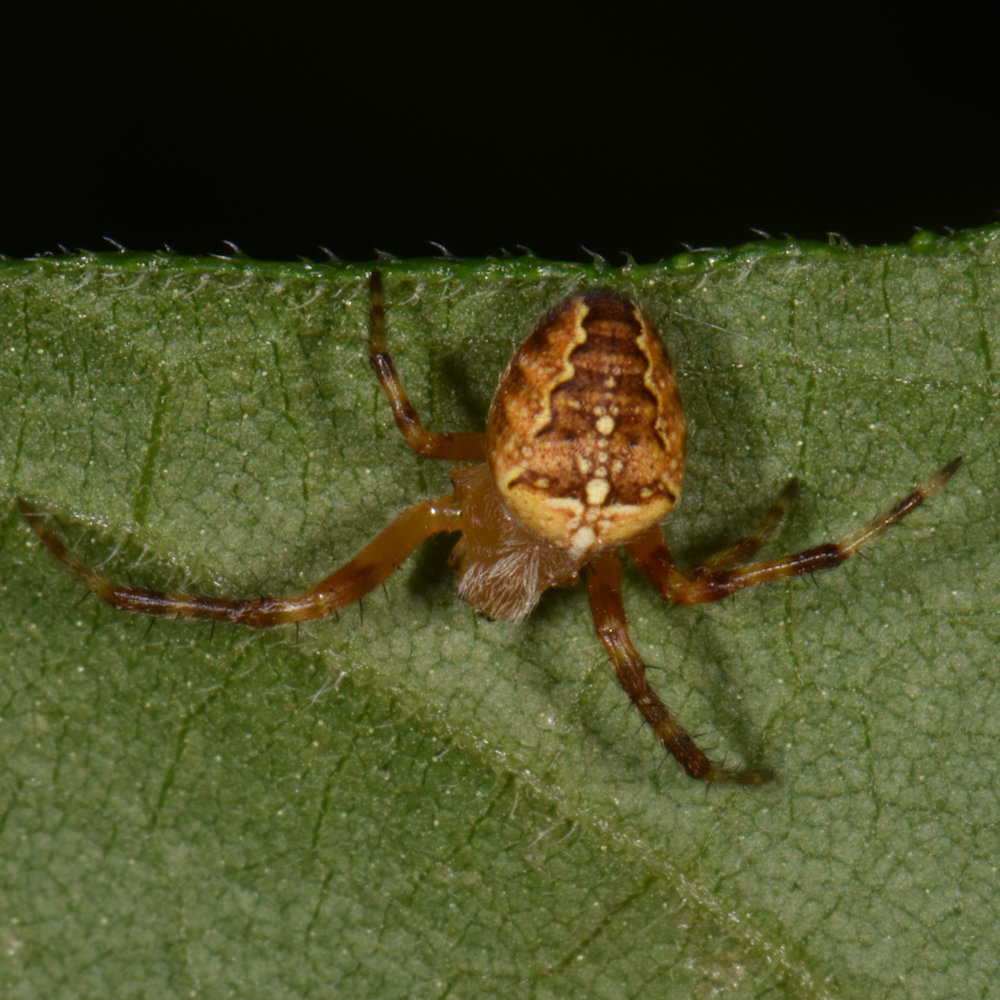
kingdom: Animalia
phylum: Arthropoda
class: Arachnida
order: Araneae
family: Araneidae
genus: Araneus
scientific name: Araneus diadematus
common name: Cross orbweaver
